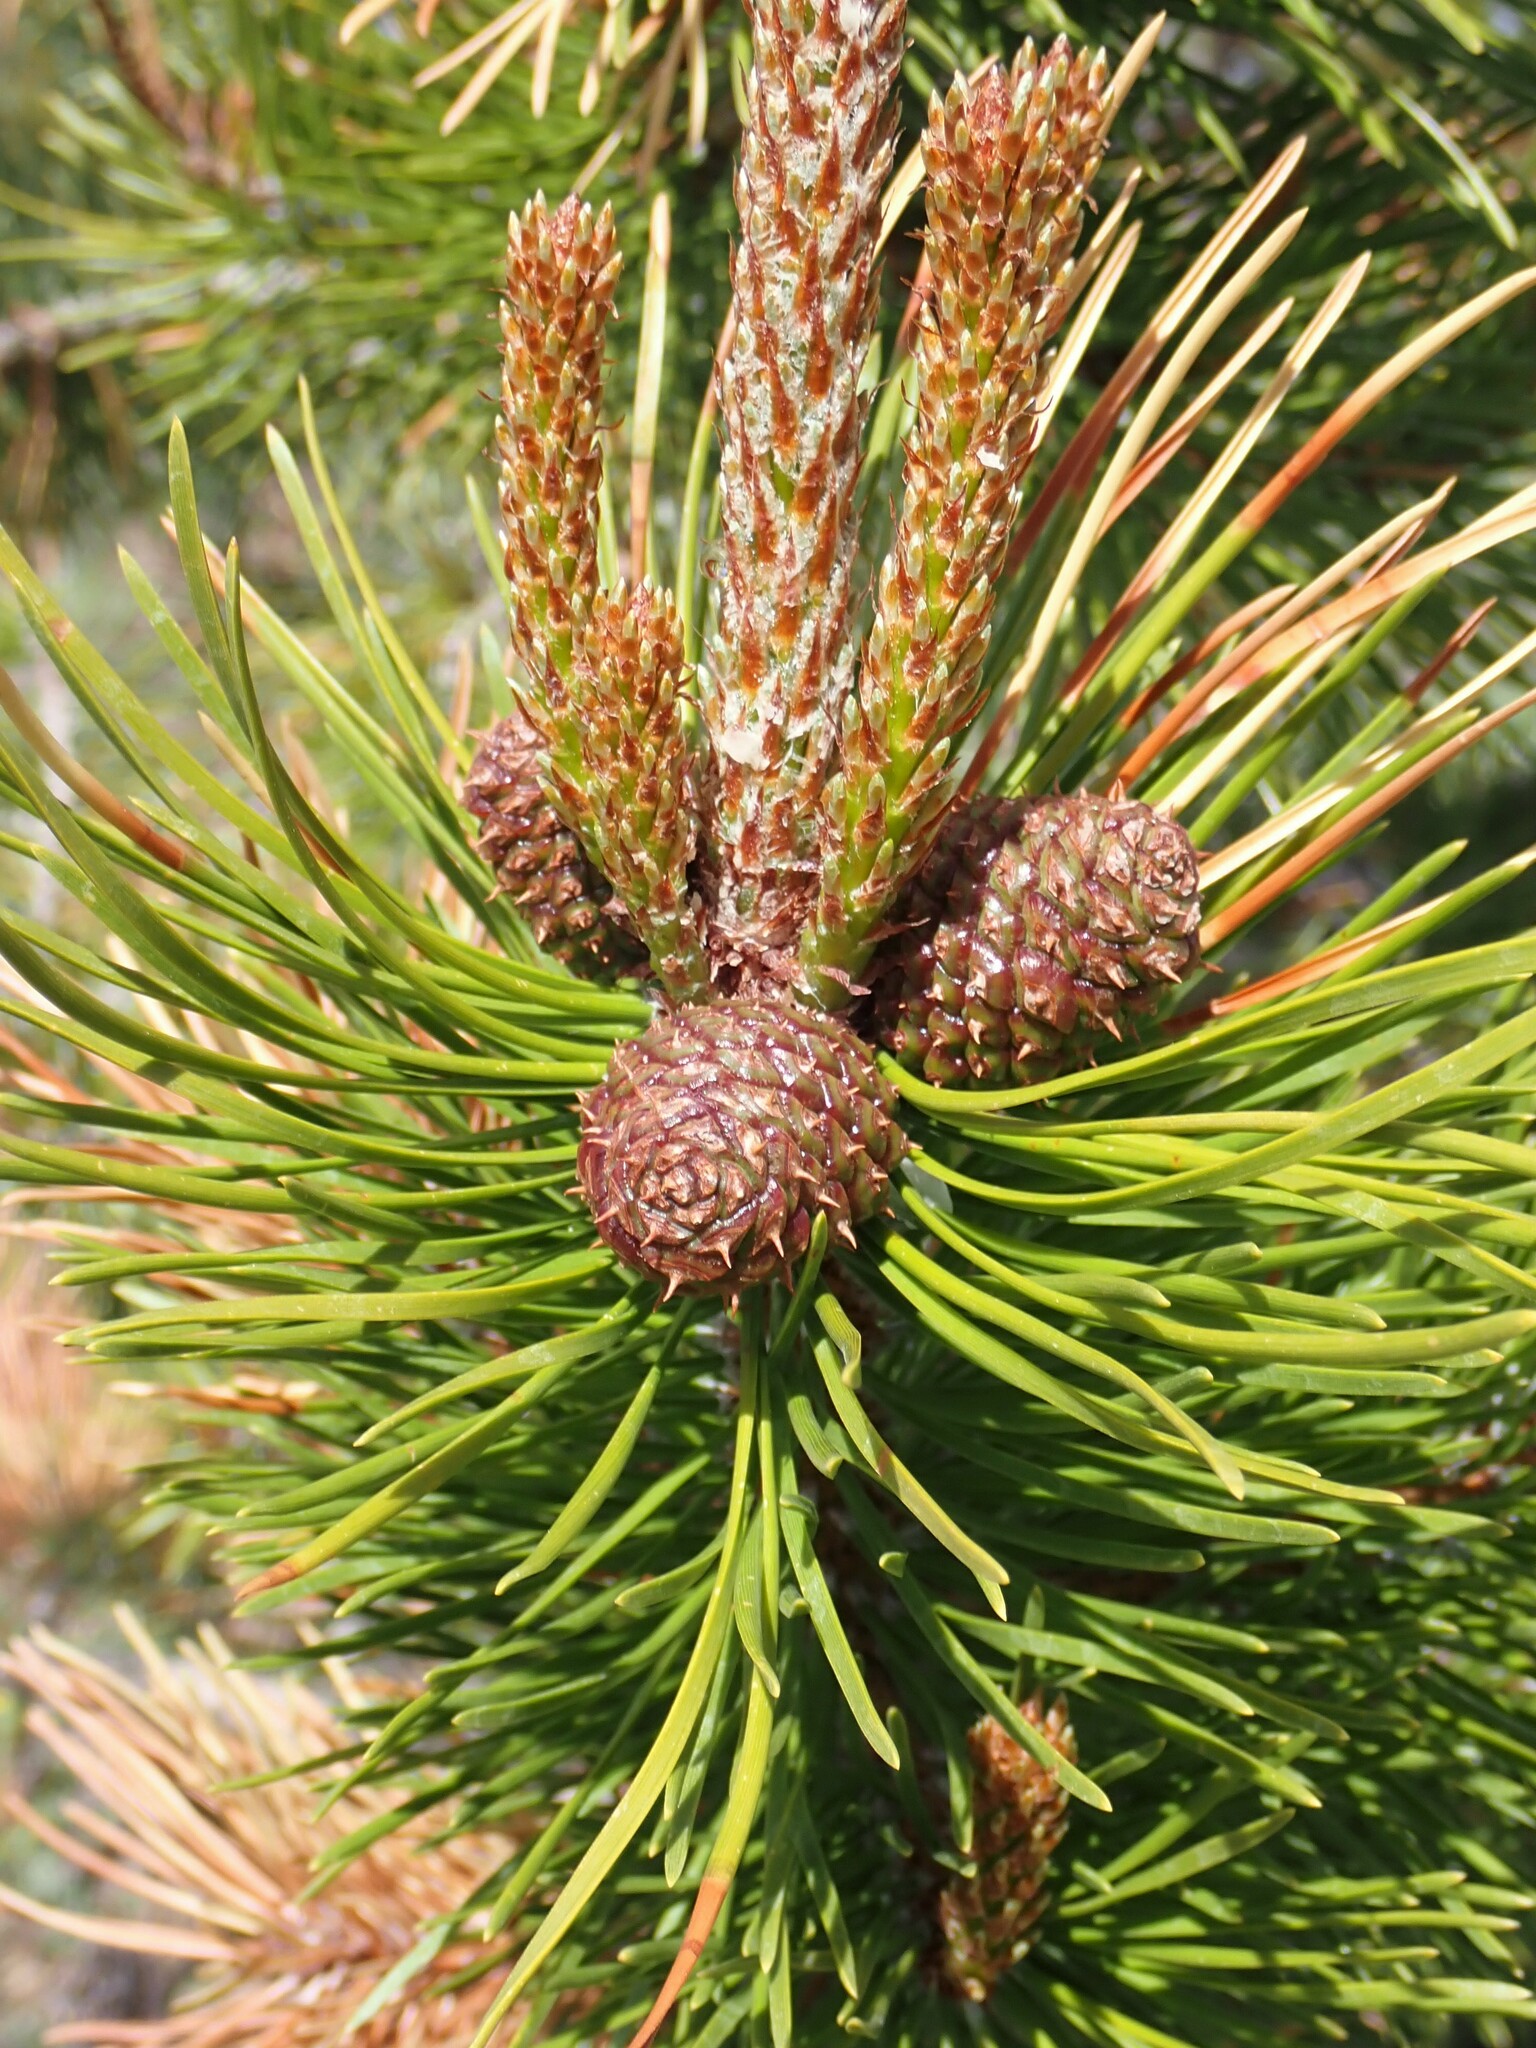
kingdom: Plantae
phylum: Tracheophyta
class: Pinopsida
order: Pinales
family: Pinaceae
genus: Pinus
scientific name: Pinus contorta
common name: Lodgepole pine
